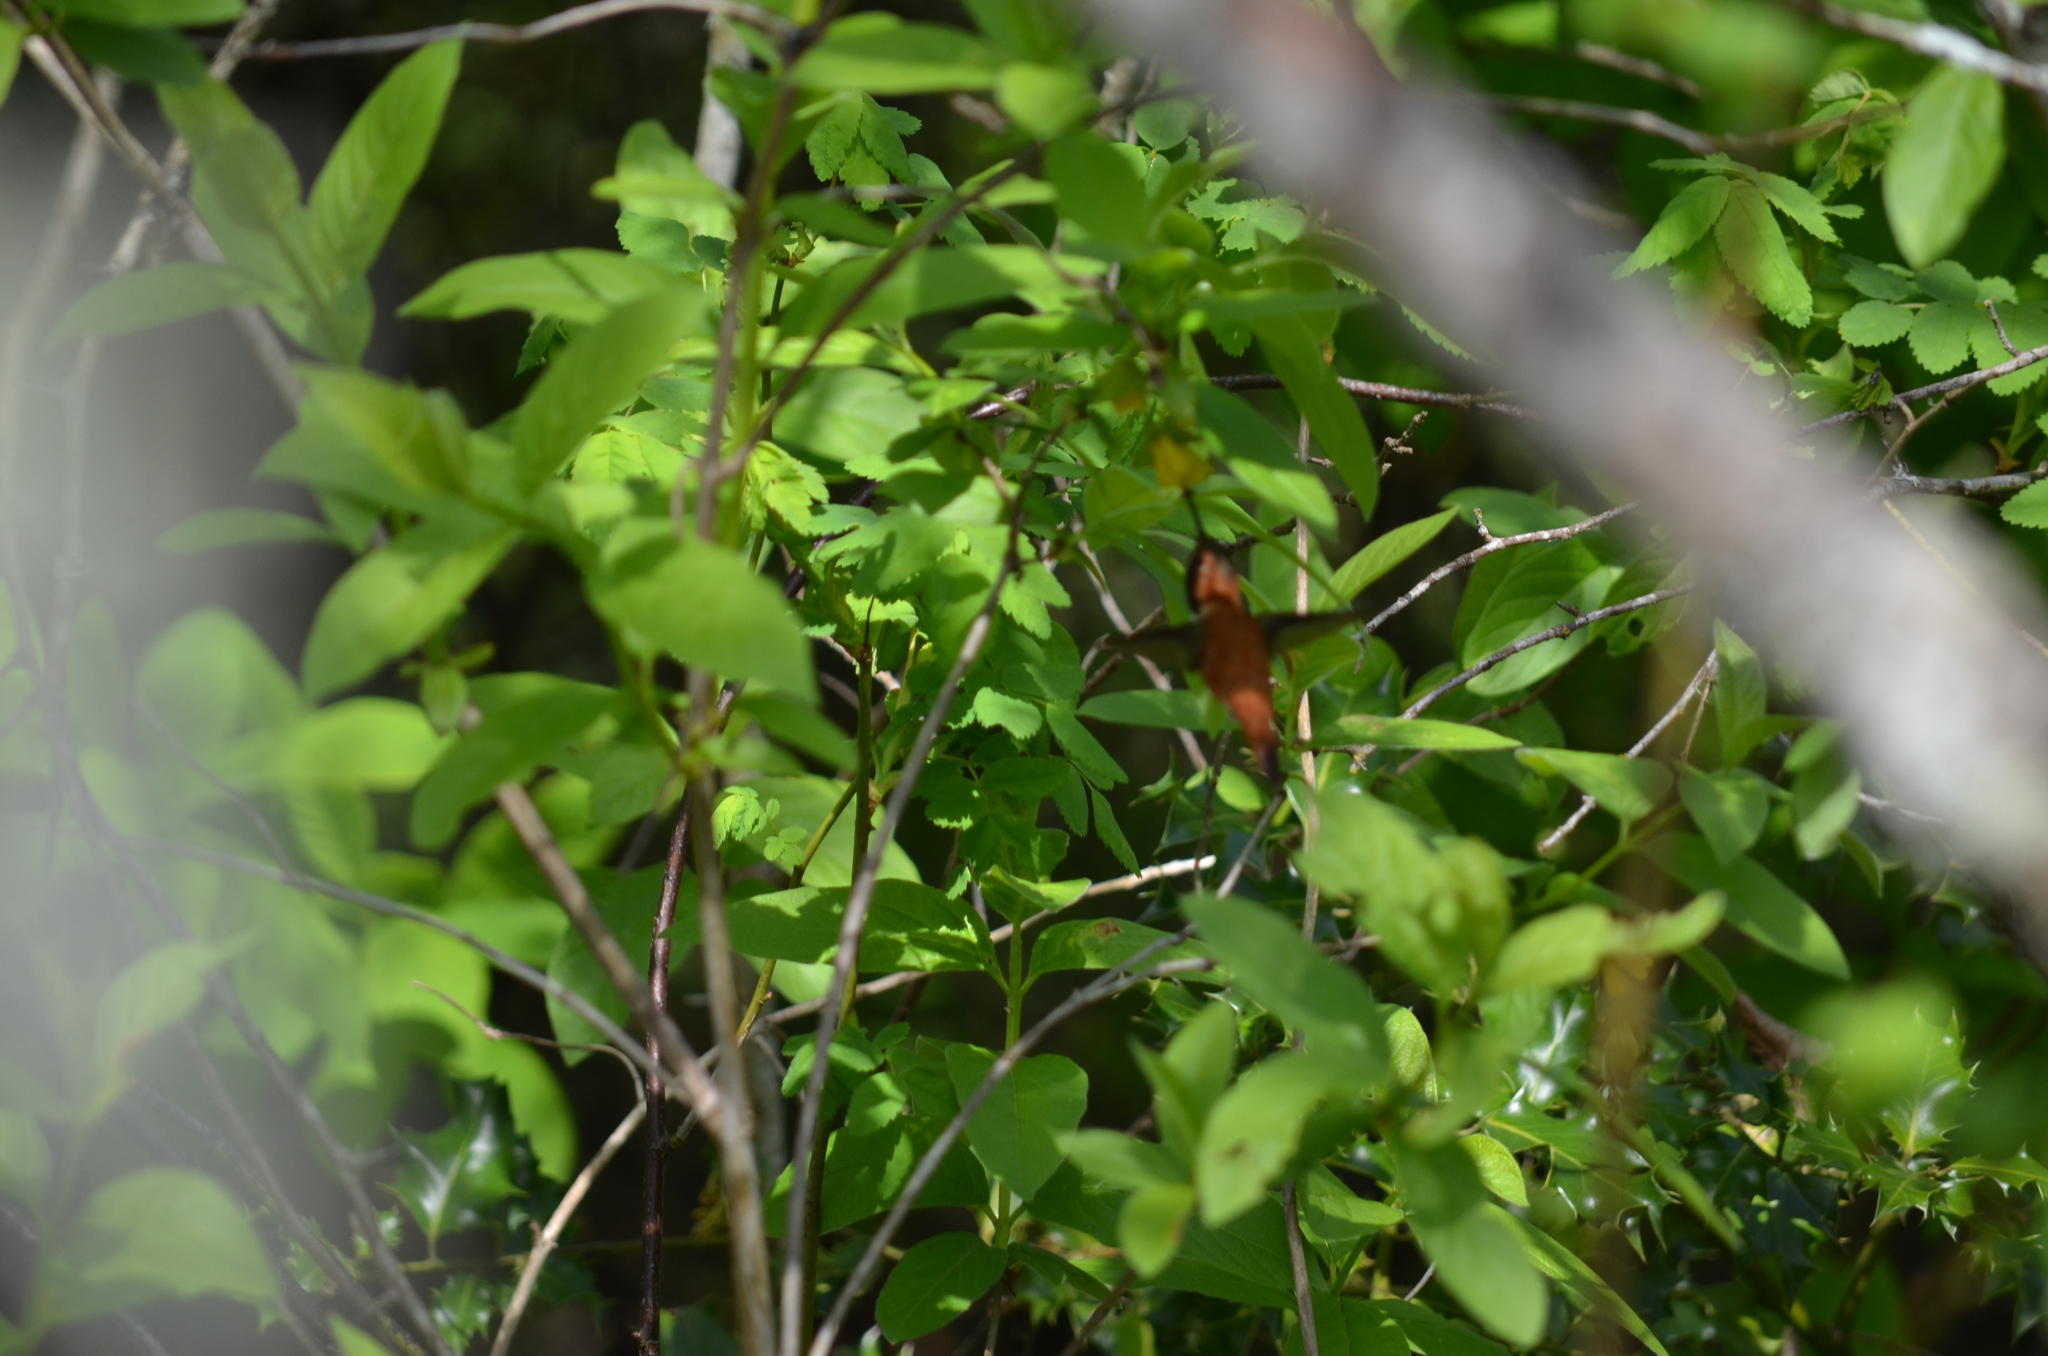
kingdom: Animalia
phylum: Chordata
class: Aves
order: Apodiformes
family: Trochilidae
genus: Selasphorus
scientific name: Selasphorus rufus
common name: Rufous hummingbird
